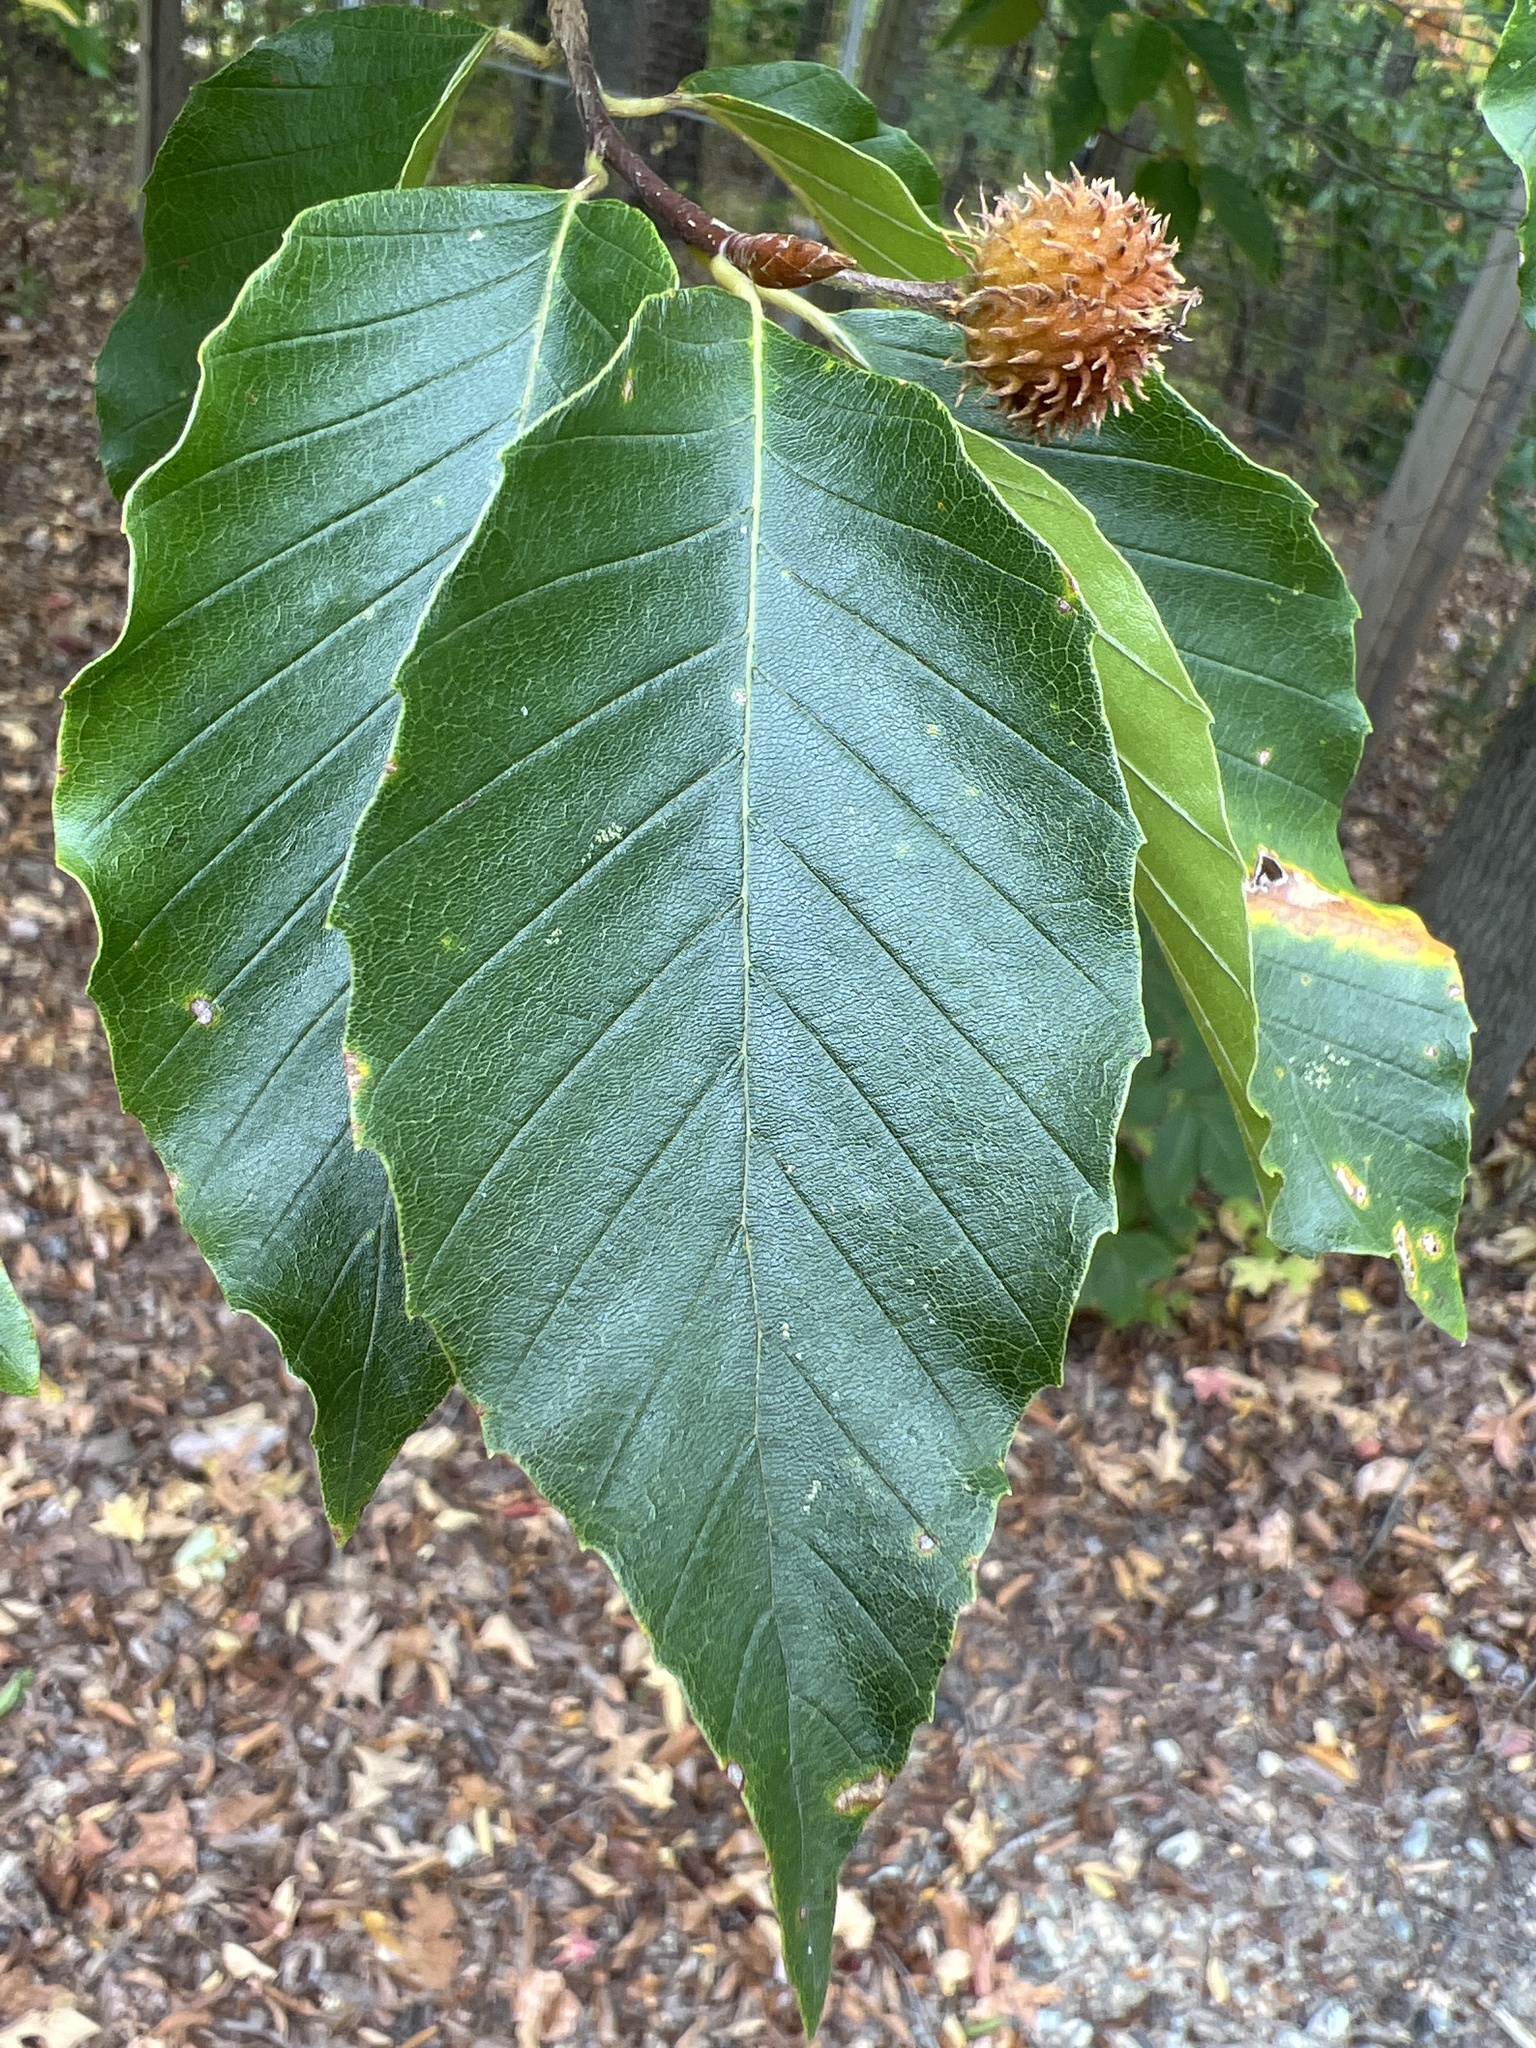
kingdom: Plantae
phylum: Tracheophyta
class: Magnoliopsida
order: Fagales
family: Fagaceae
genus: Fagus
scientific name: Fagus grandifolia
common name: American beech
